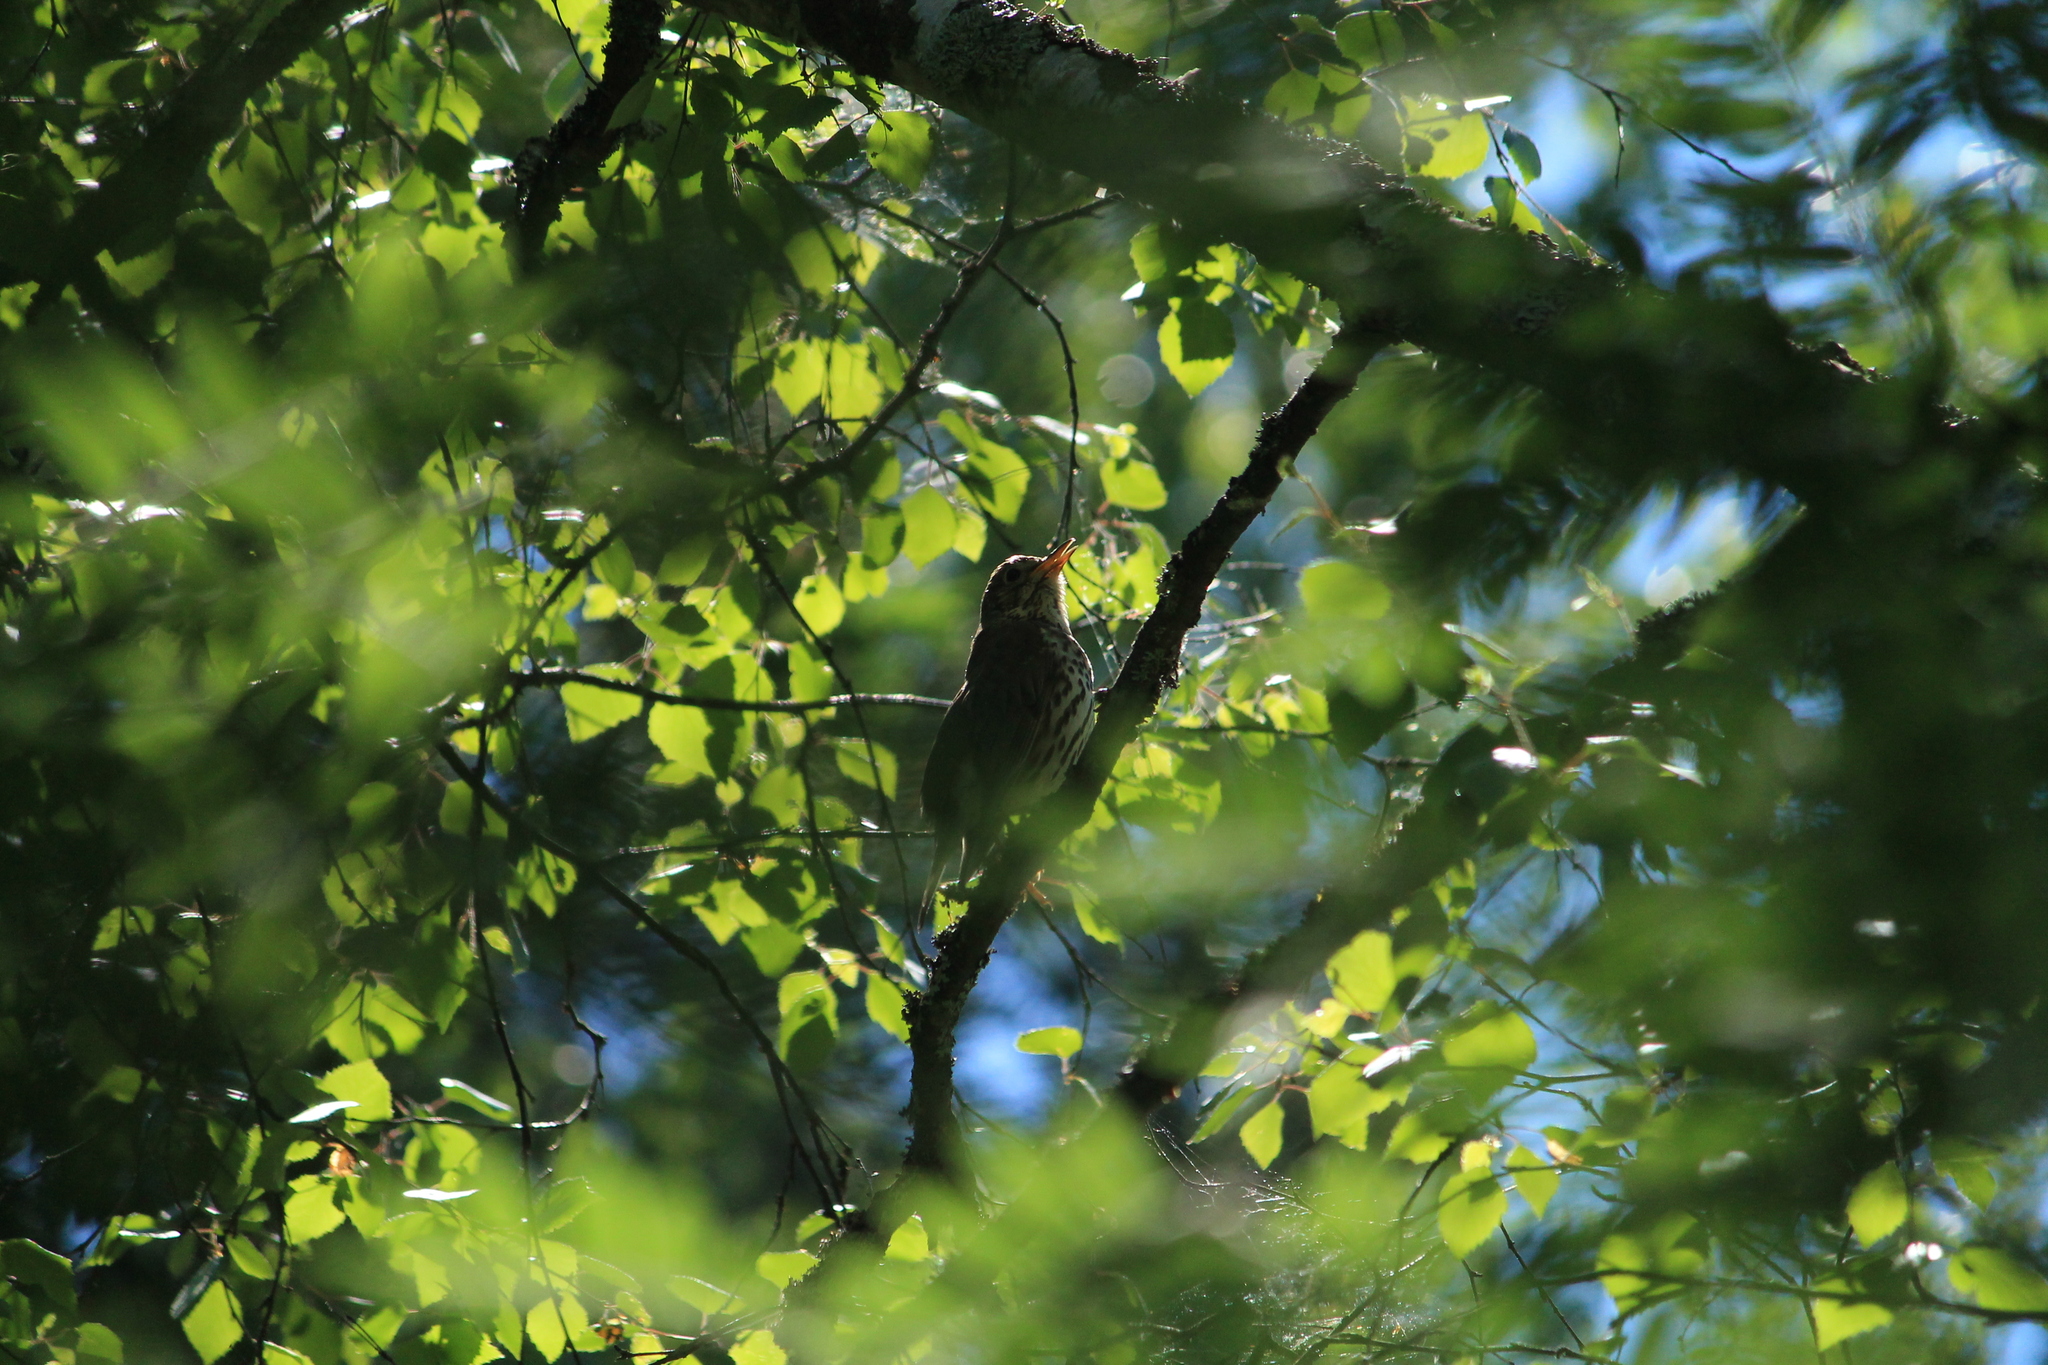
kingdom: Animalia
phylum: Chordata
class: Aves
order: Passeriformes
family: Turdidae
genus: Turdus
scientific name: Turdus philomelos
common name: Song thrush
